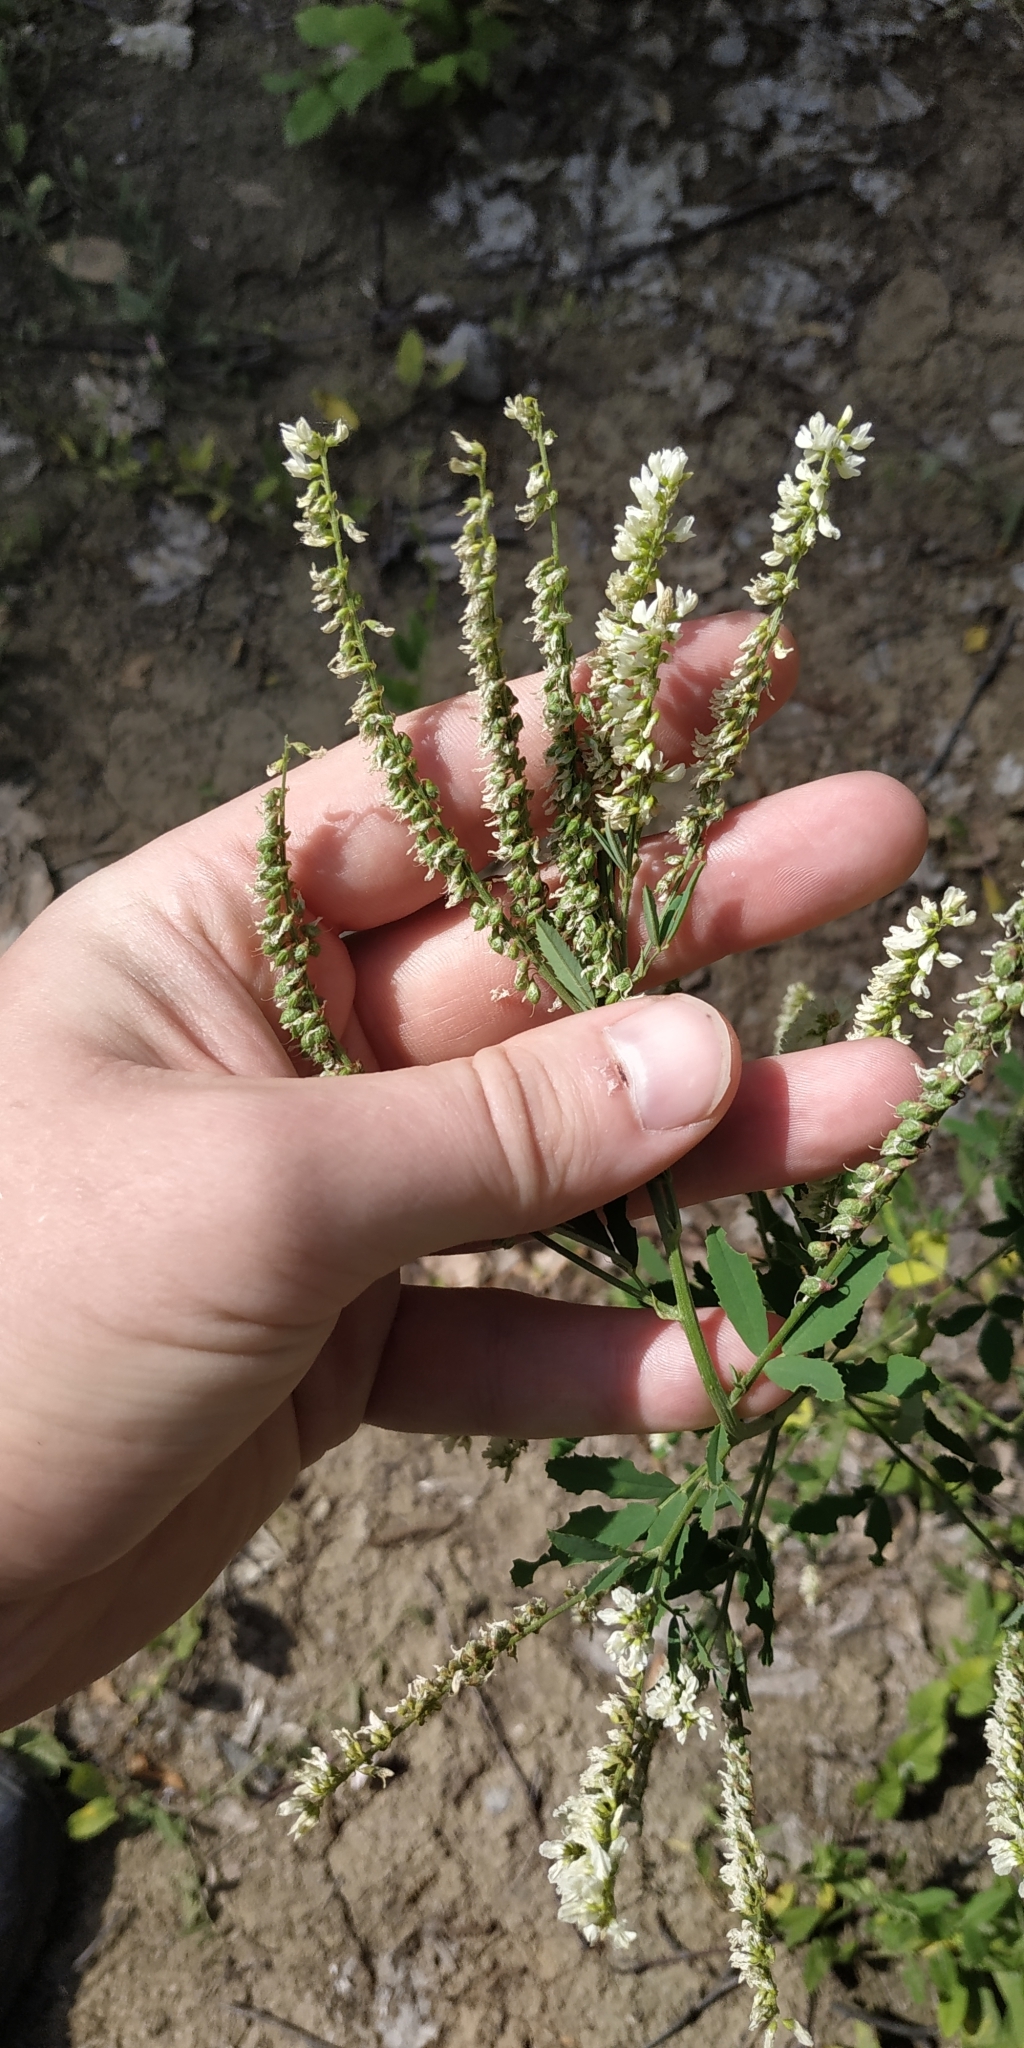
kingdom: Plantae
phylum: Tracheophyta
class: Magnoliopsida
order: Fabales
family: Fabaceae
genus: Melilotus
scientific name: Melilotus albus
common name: White melilot
